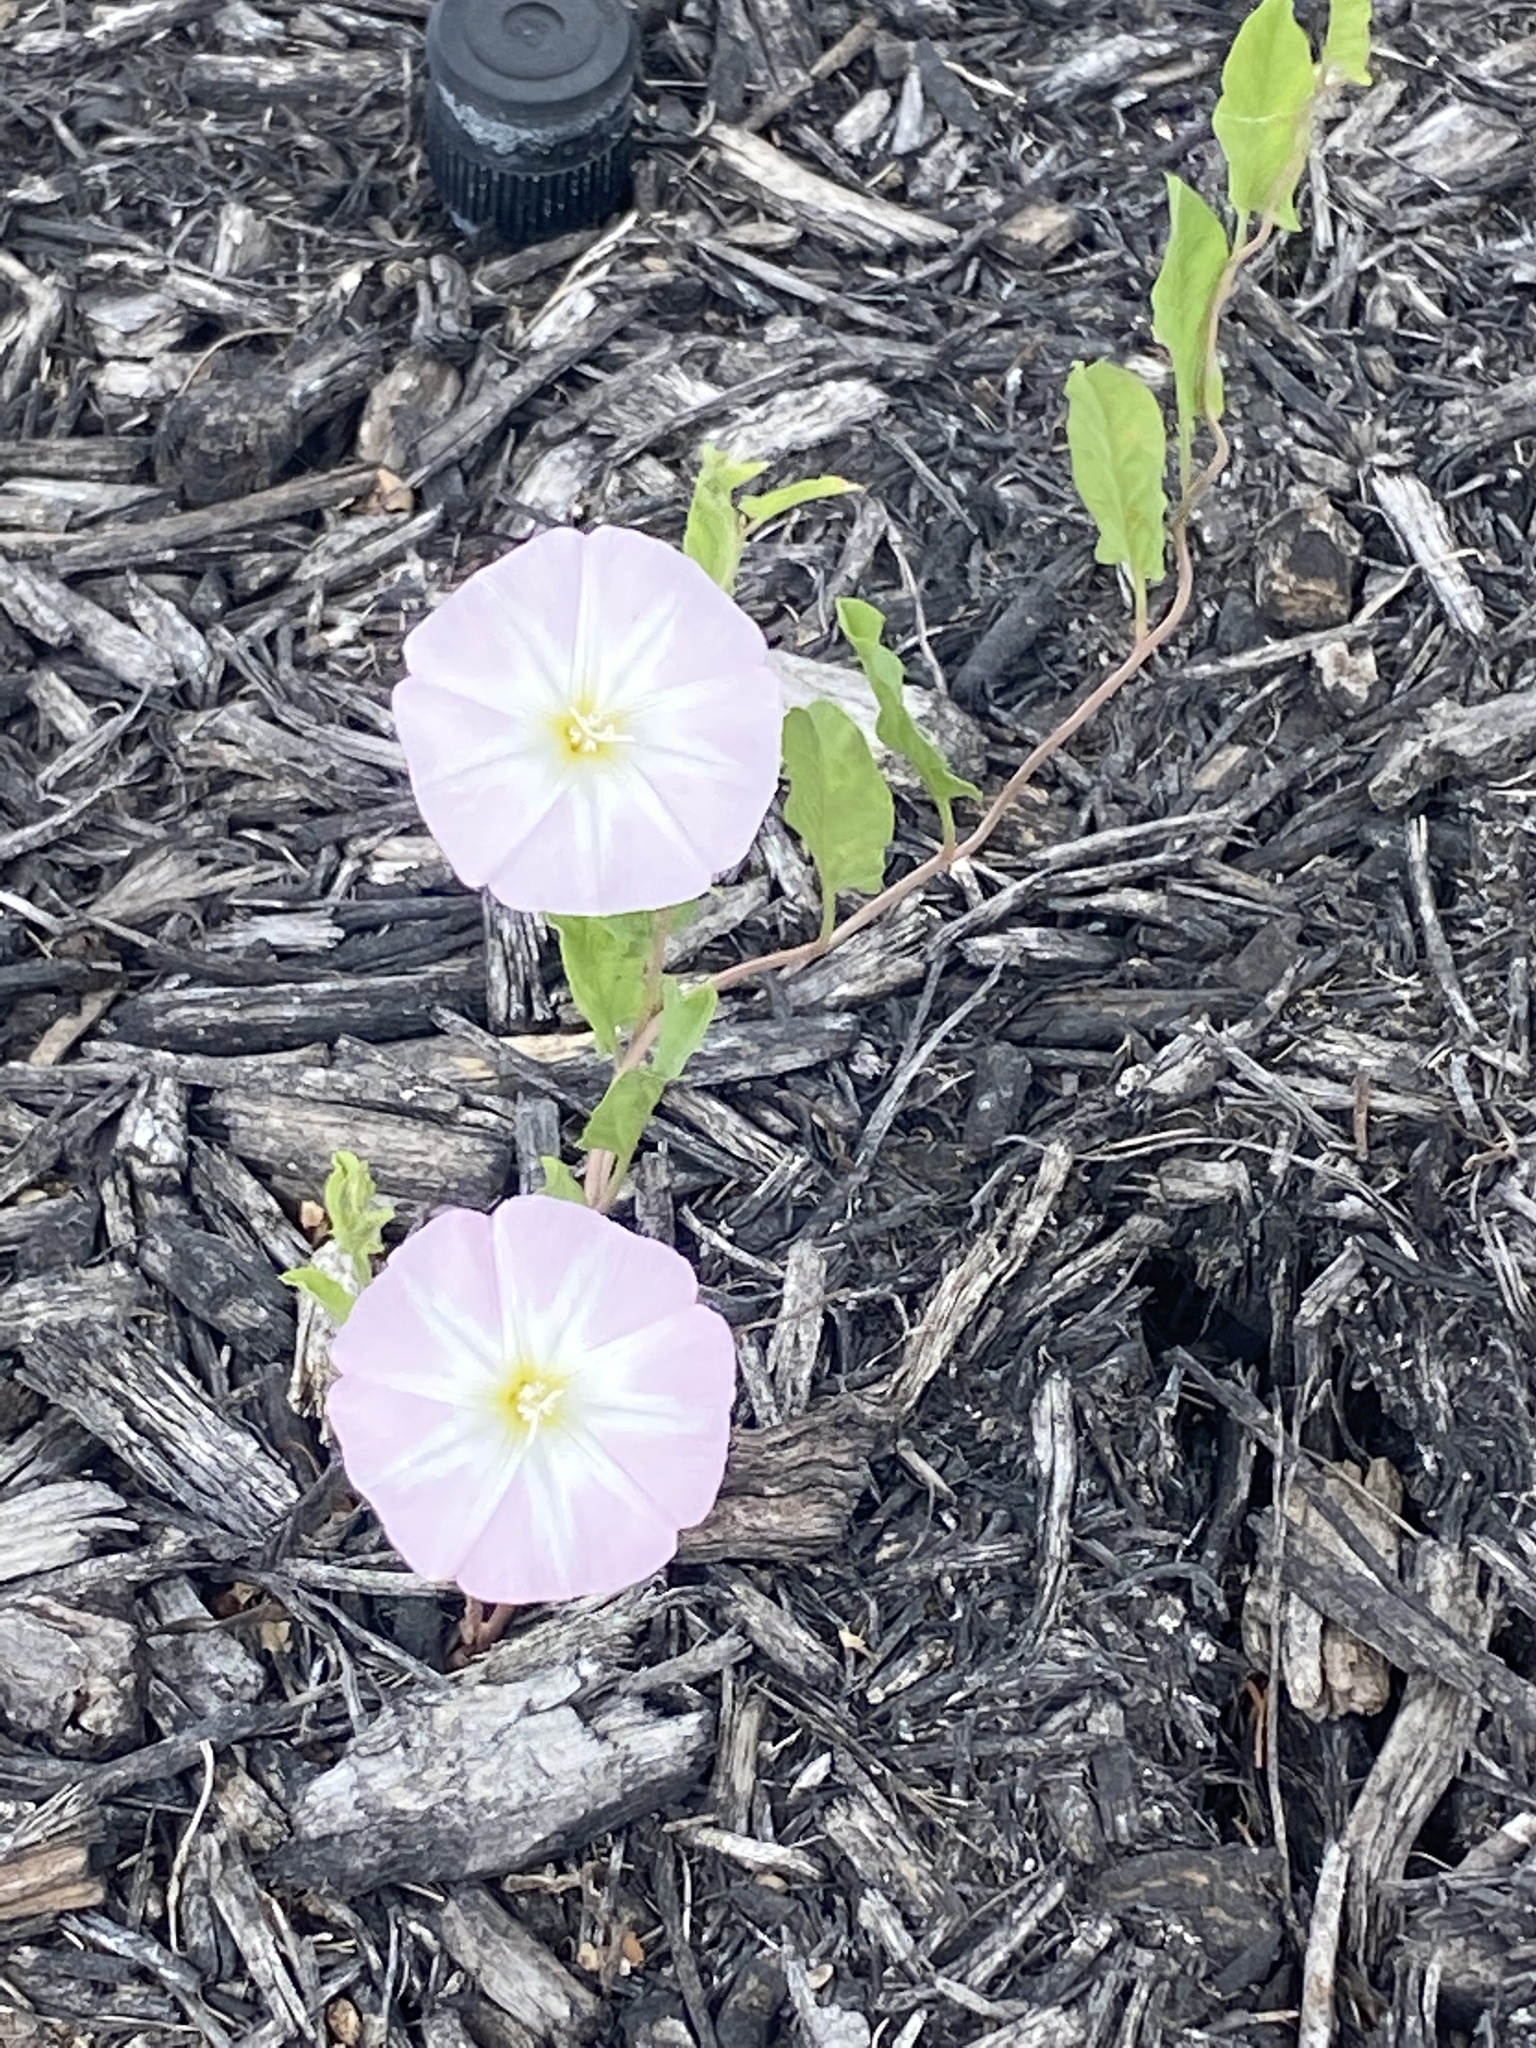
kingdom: Plantae
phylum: Tracheophyta
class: Magnoliopsida
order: Solanales
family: Convolvulaceae
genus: Convolvulus
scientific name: Convolvulus arvensis
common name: Field bindweed
